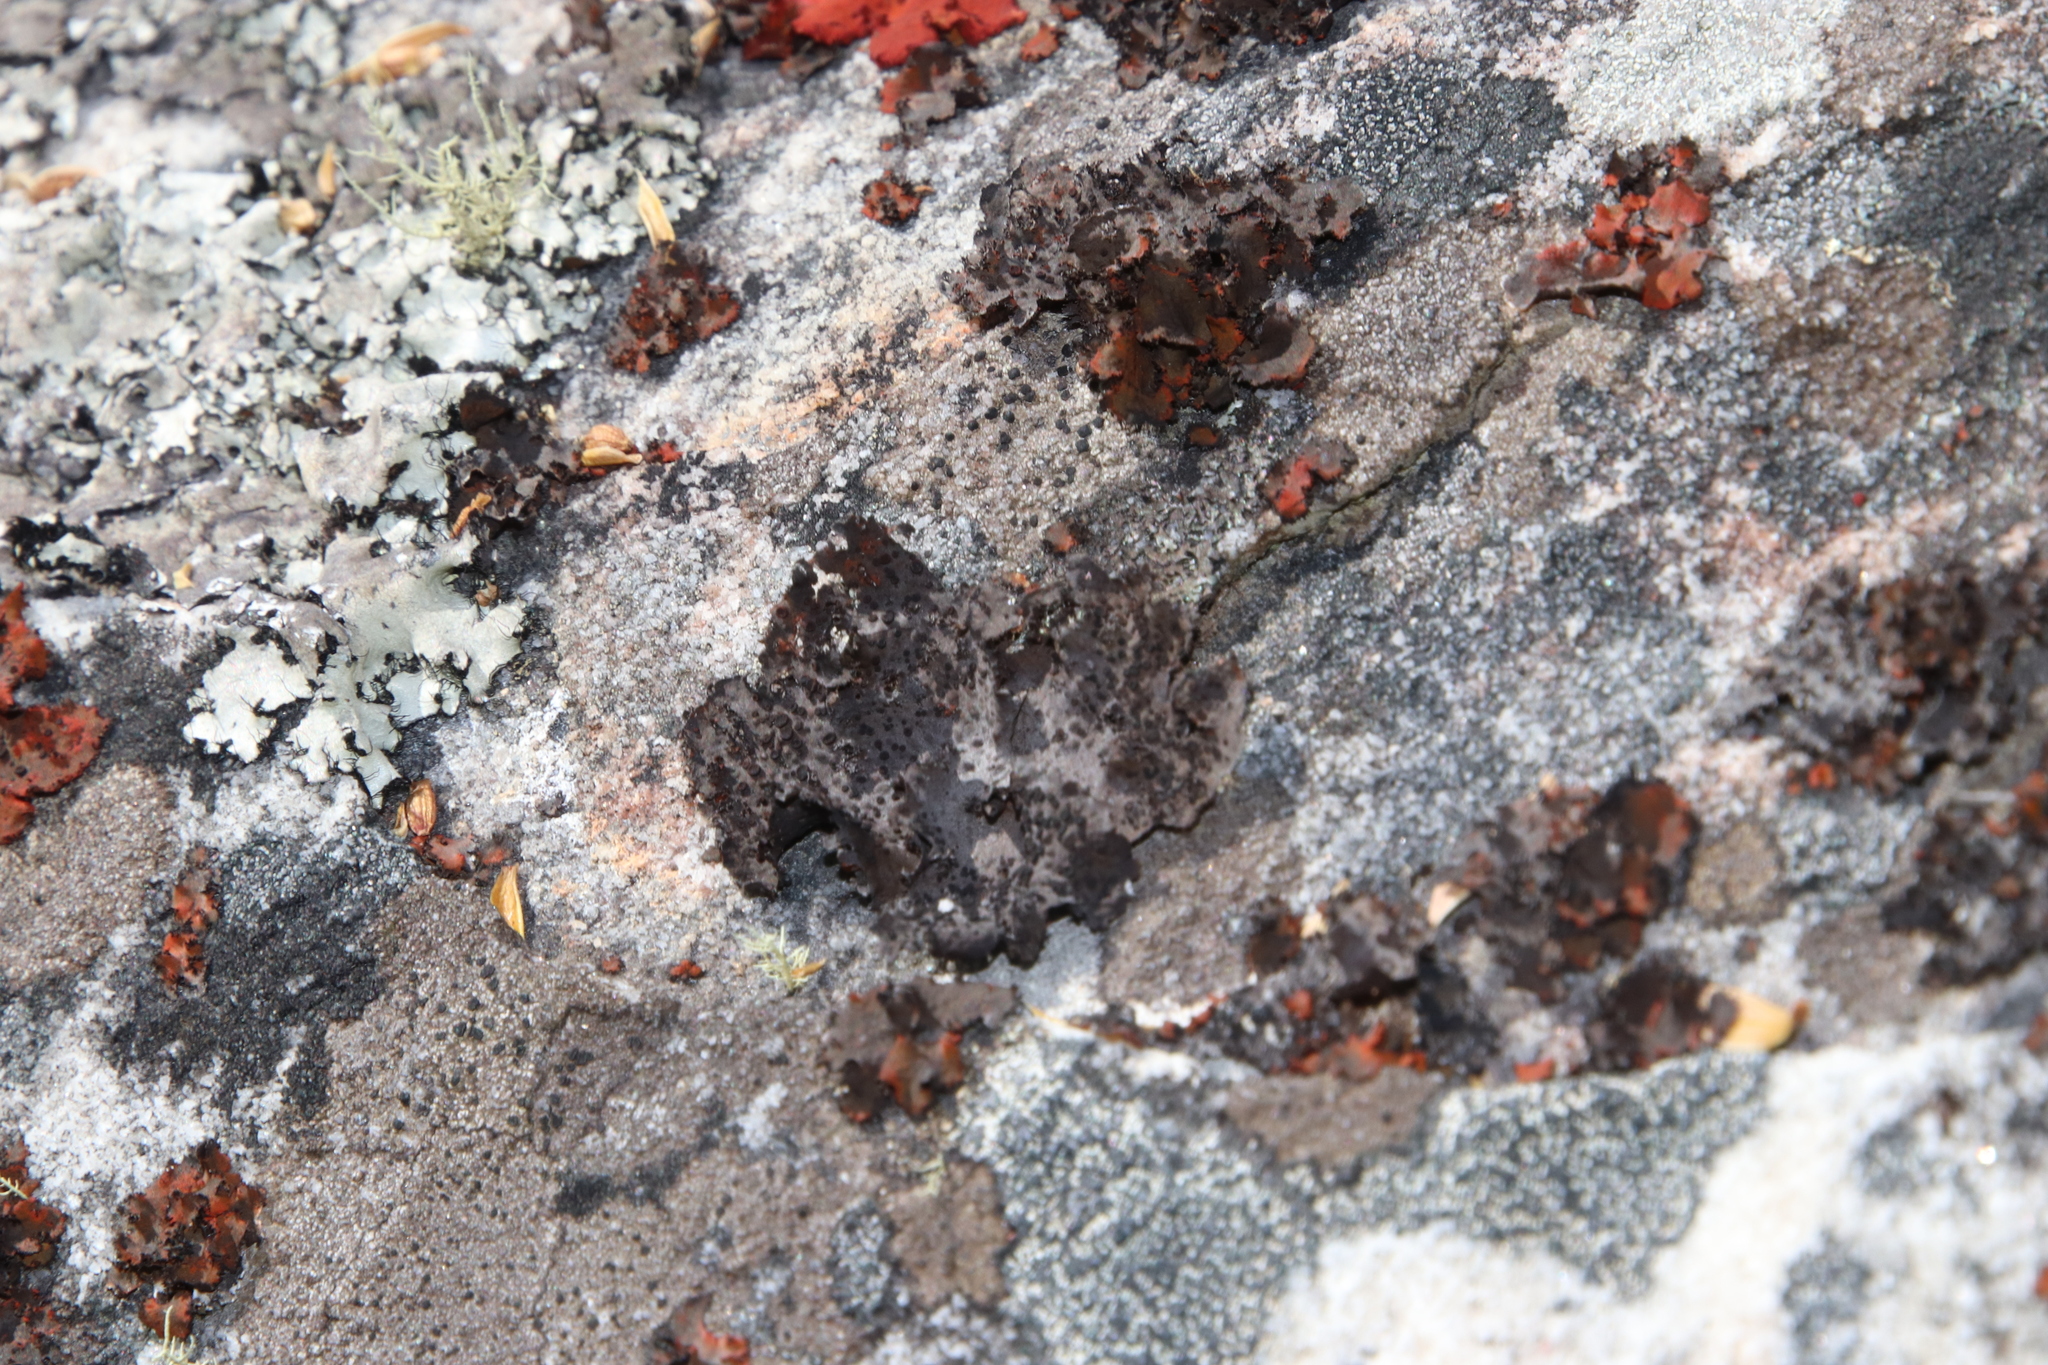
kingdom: Fungi
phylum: Ascomycota
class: Lecanoromycetes
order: Umbilicariales
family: Umbilicariaceae
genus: Lasallia
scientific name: Lasallia rubiginosa
